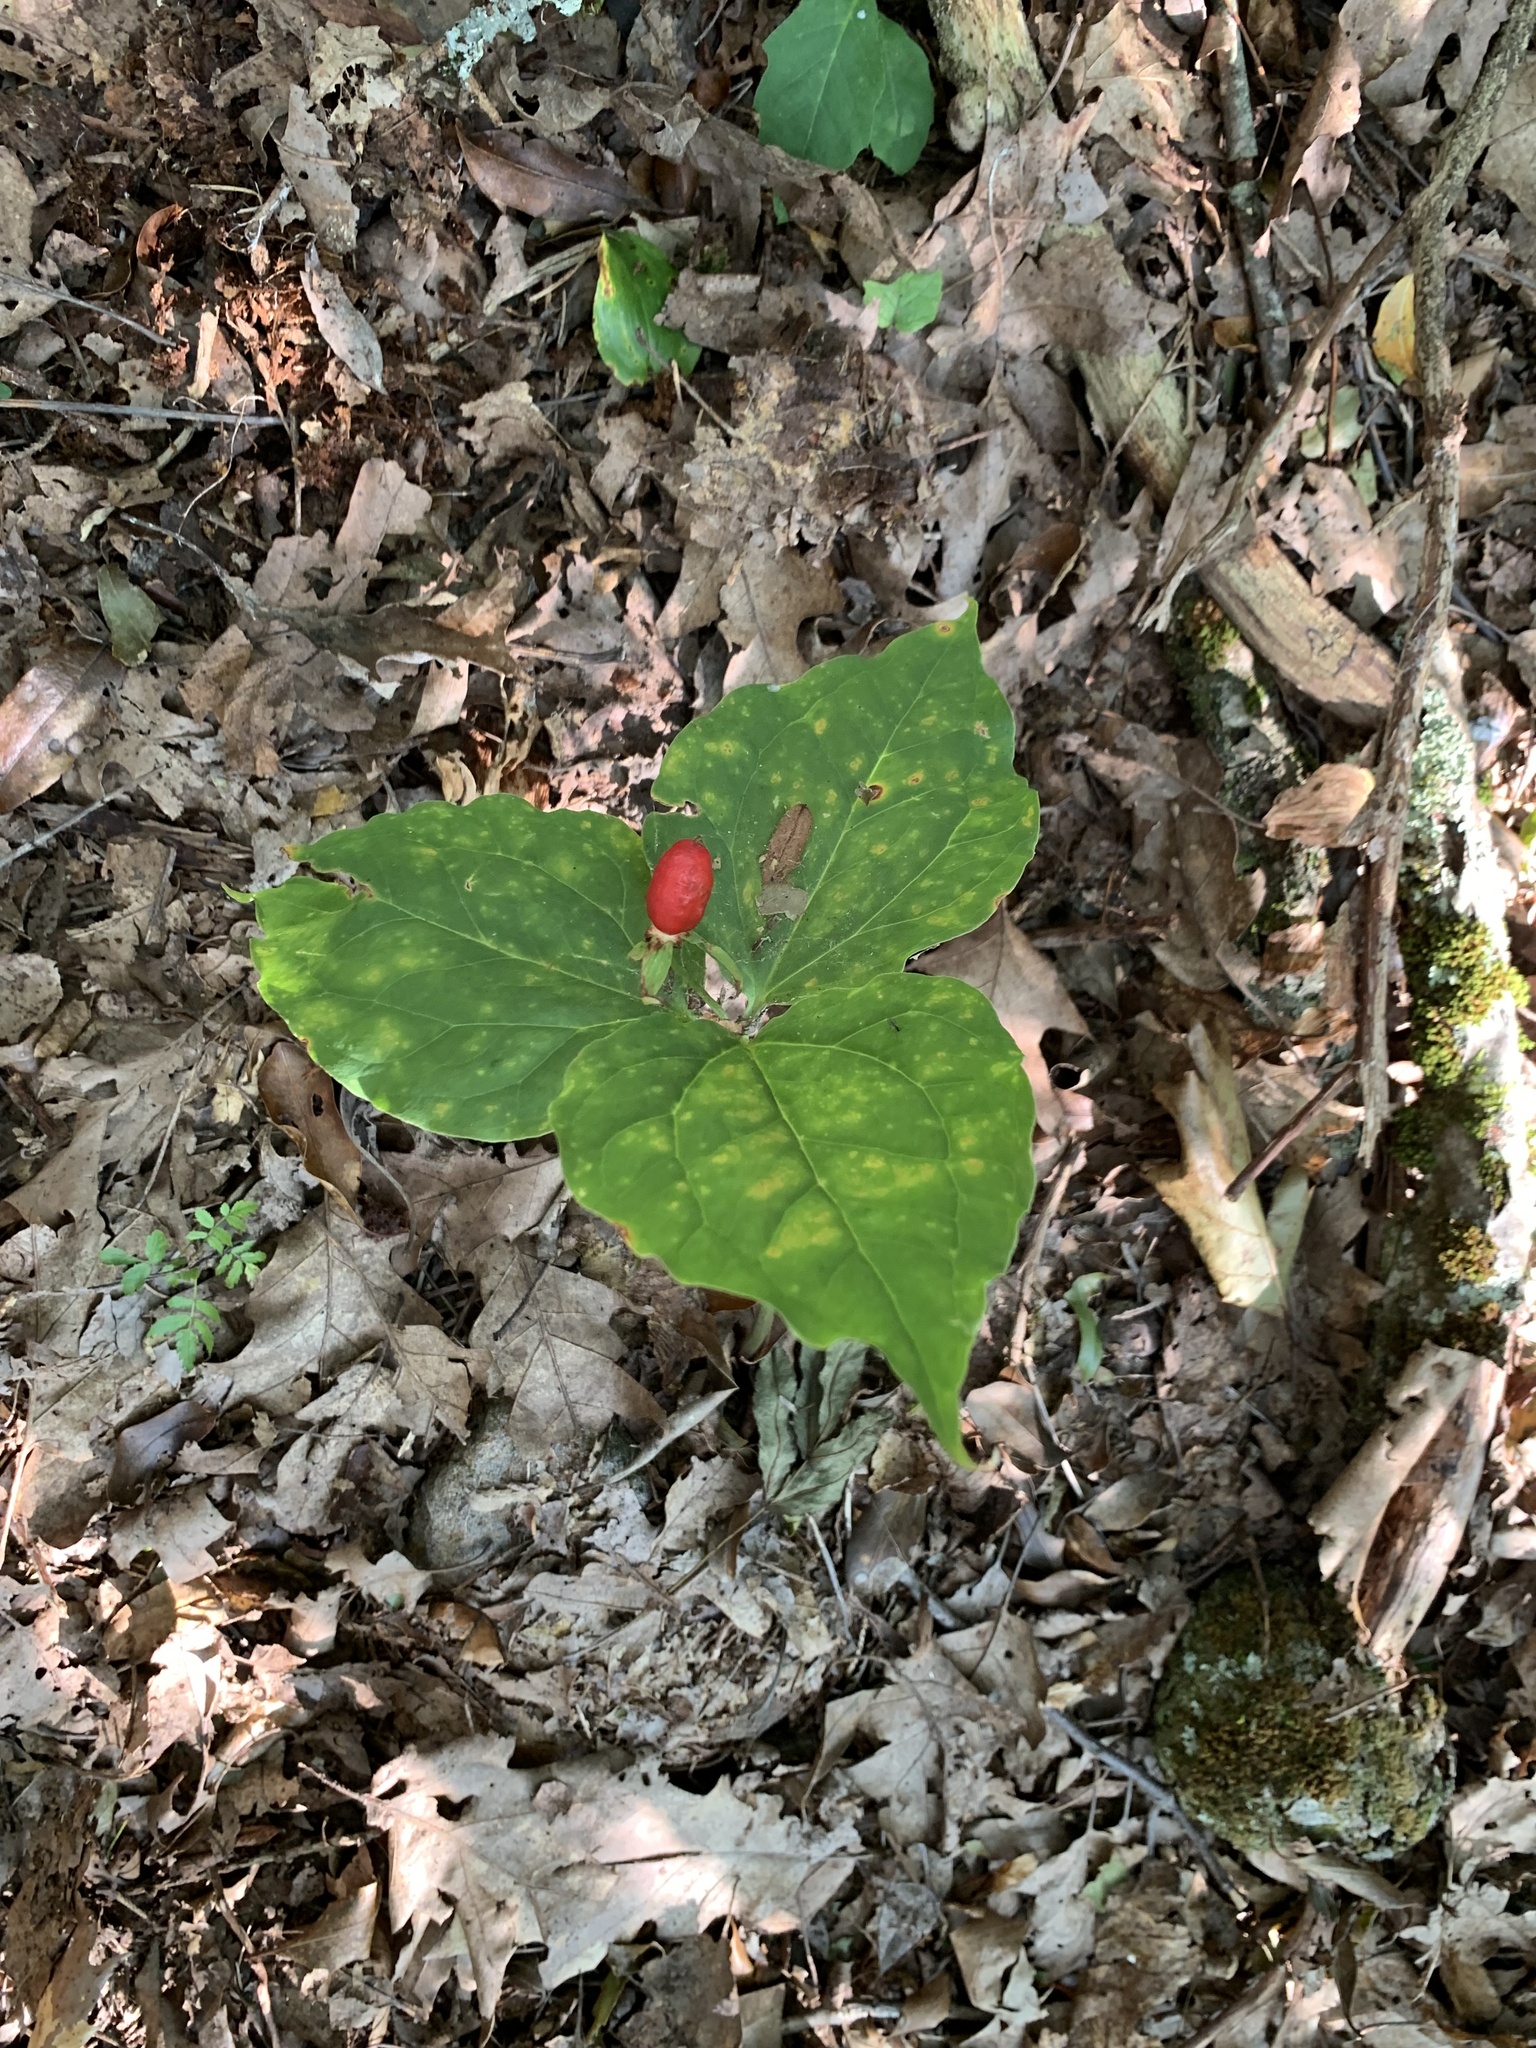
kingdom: Plantae
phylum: Tracheophyta
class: Liliopsida
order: Liliales
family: Melanthiaceae
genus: Trillium
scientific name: Trillium undulatum
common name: Paint trillium
